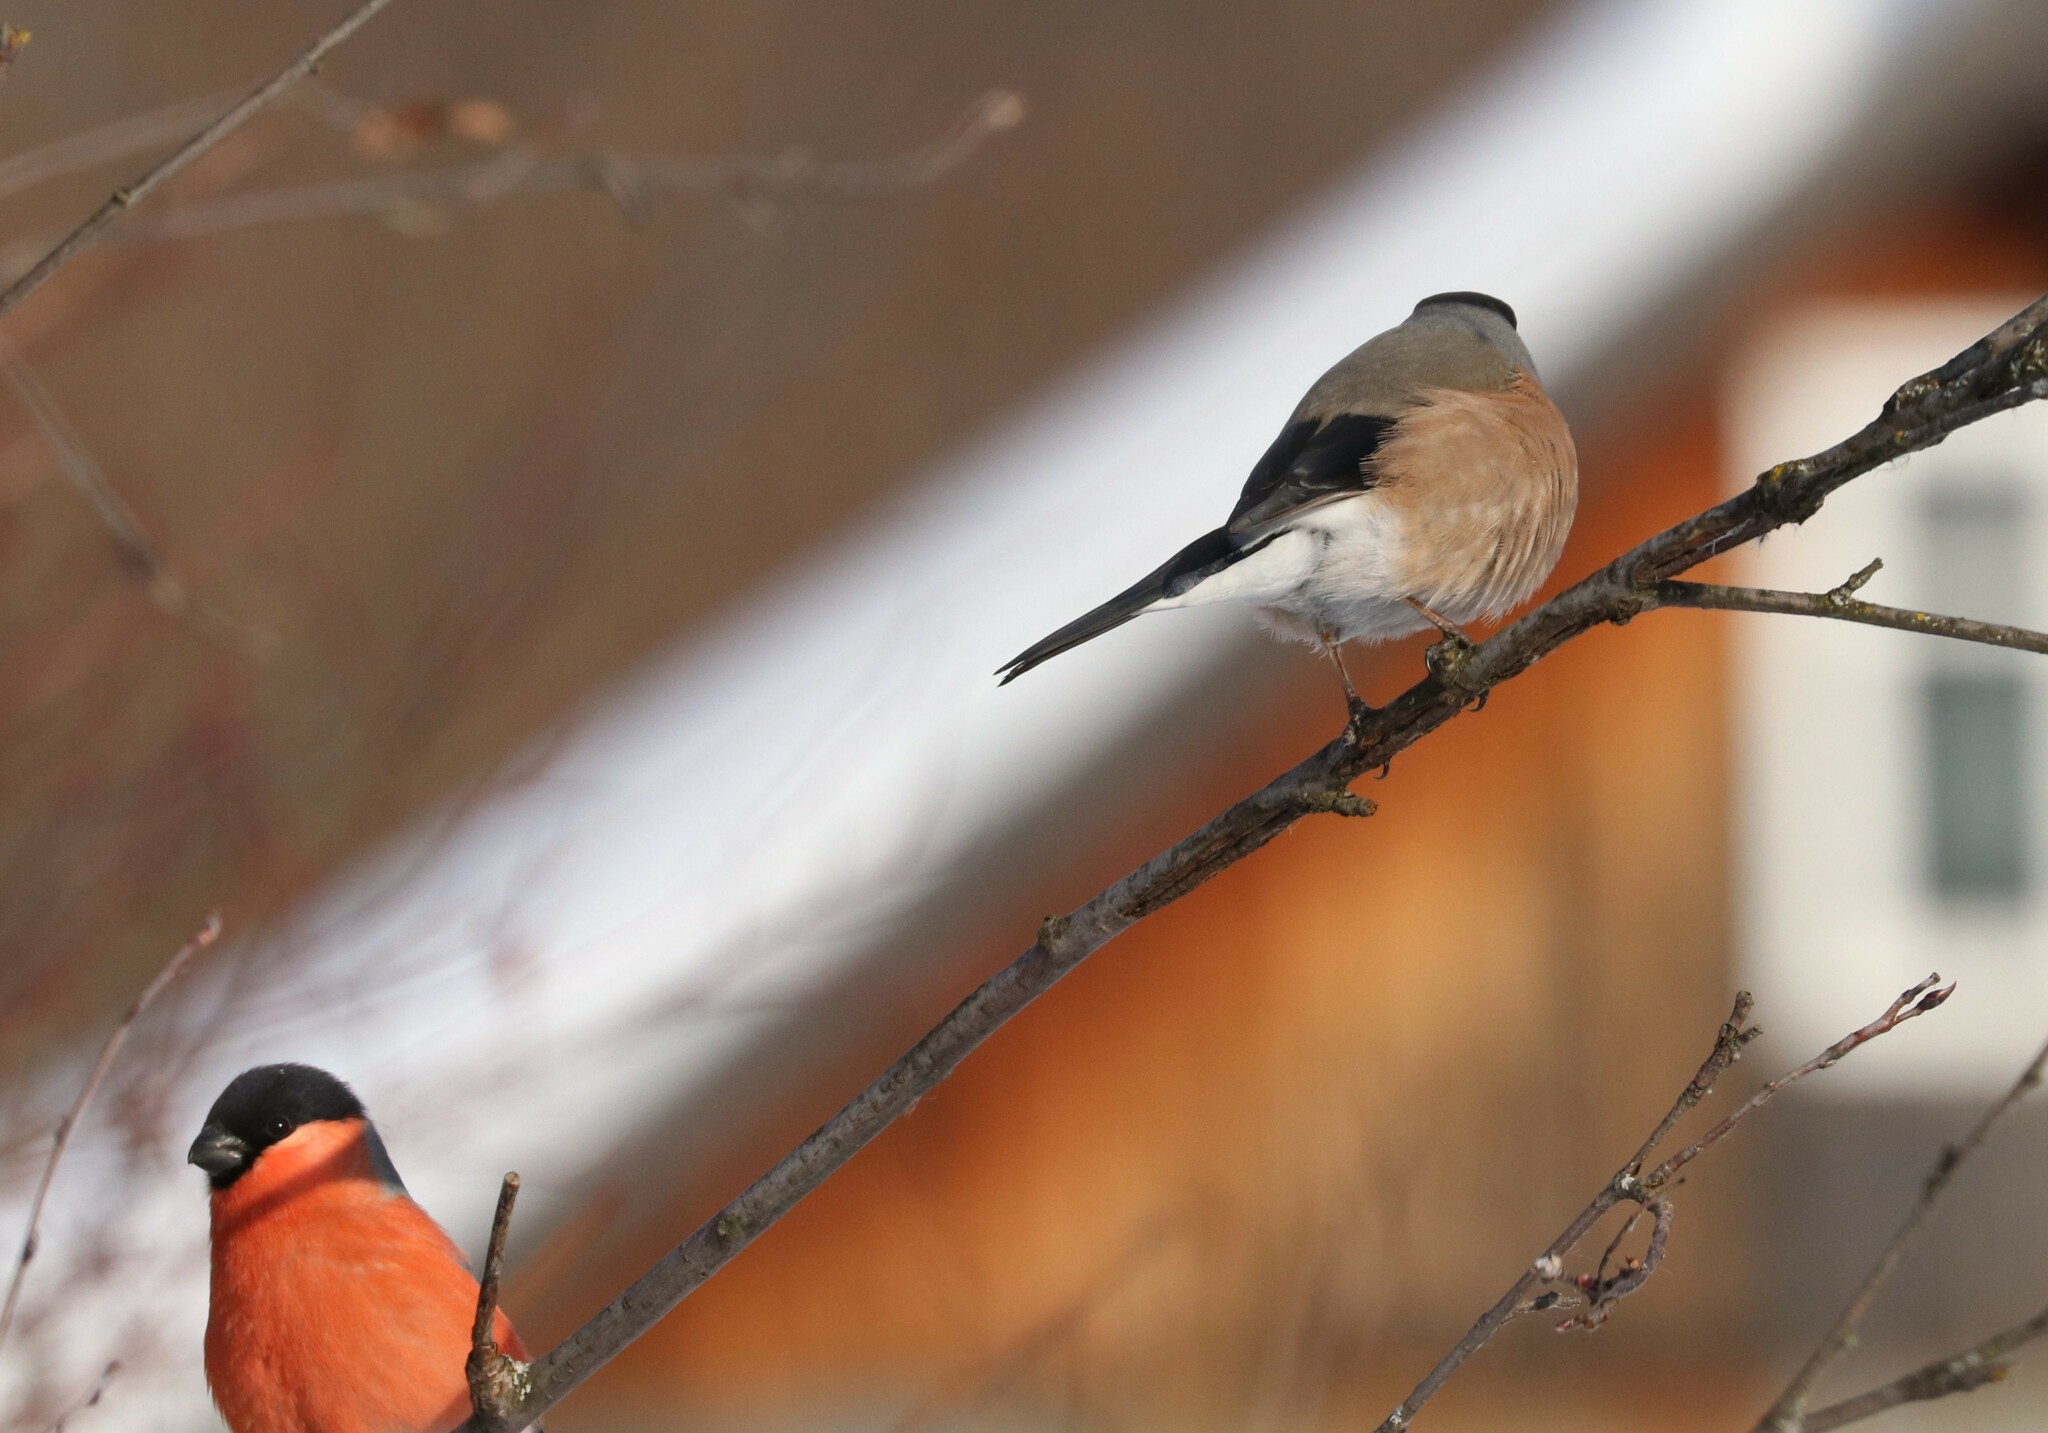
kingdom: Animalia
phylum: Chordata
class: Aves
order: Passeriformes
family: Fringillidae
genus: Pyrrhula
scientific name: Pyrrhula pyrrhula
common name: Eurasian bullfinch
